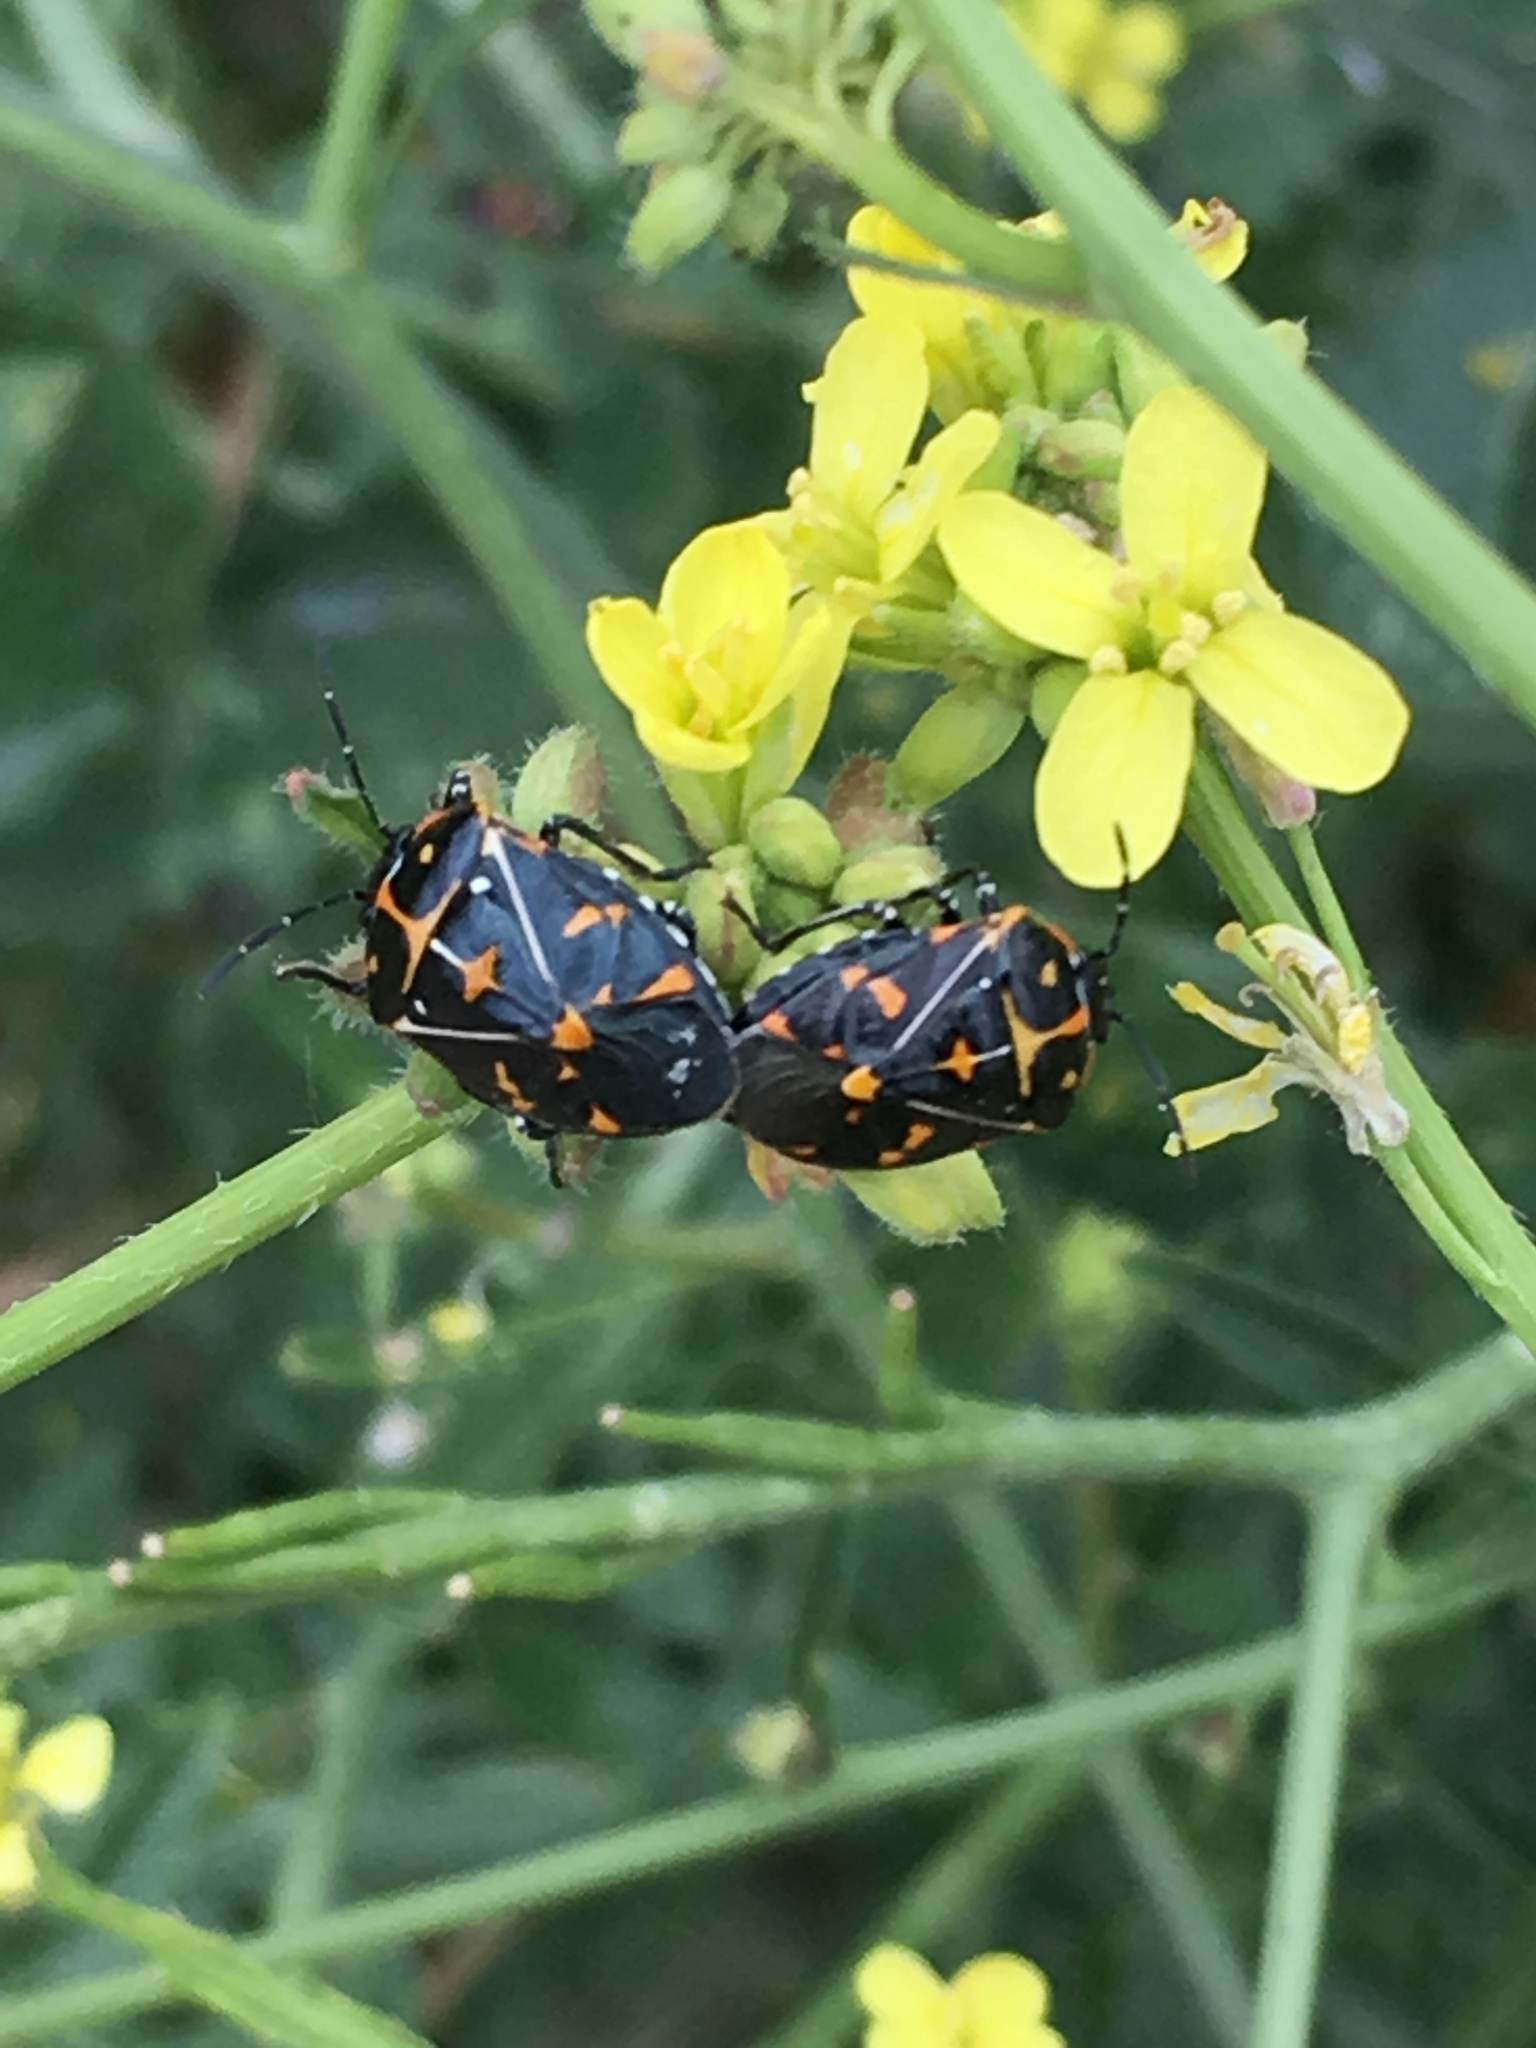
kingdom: Animalia
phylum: Arthropoda
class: Insecta
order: Hemiptera
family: Pentatomidae
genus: Murgantia
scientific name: Murgantia histrionica
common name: Harlequin bug
